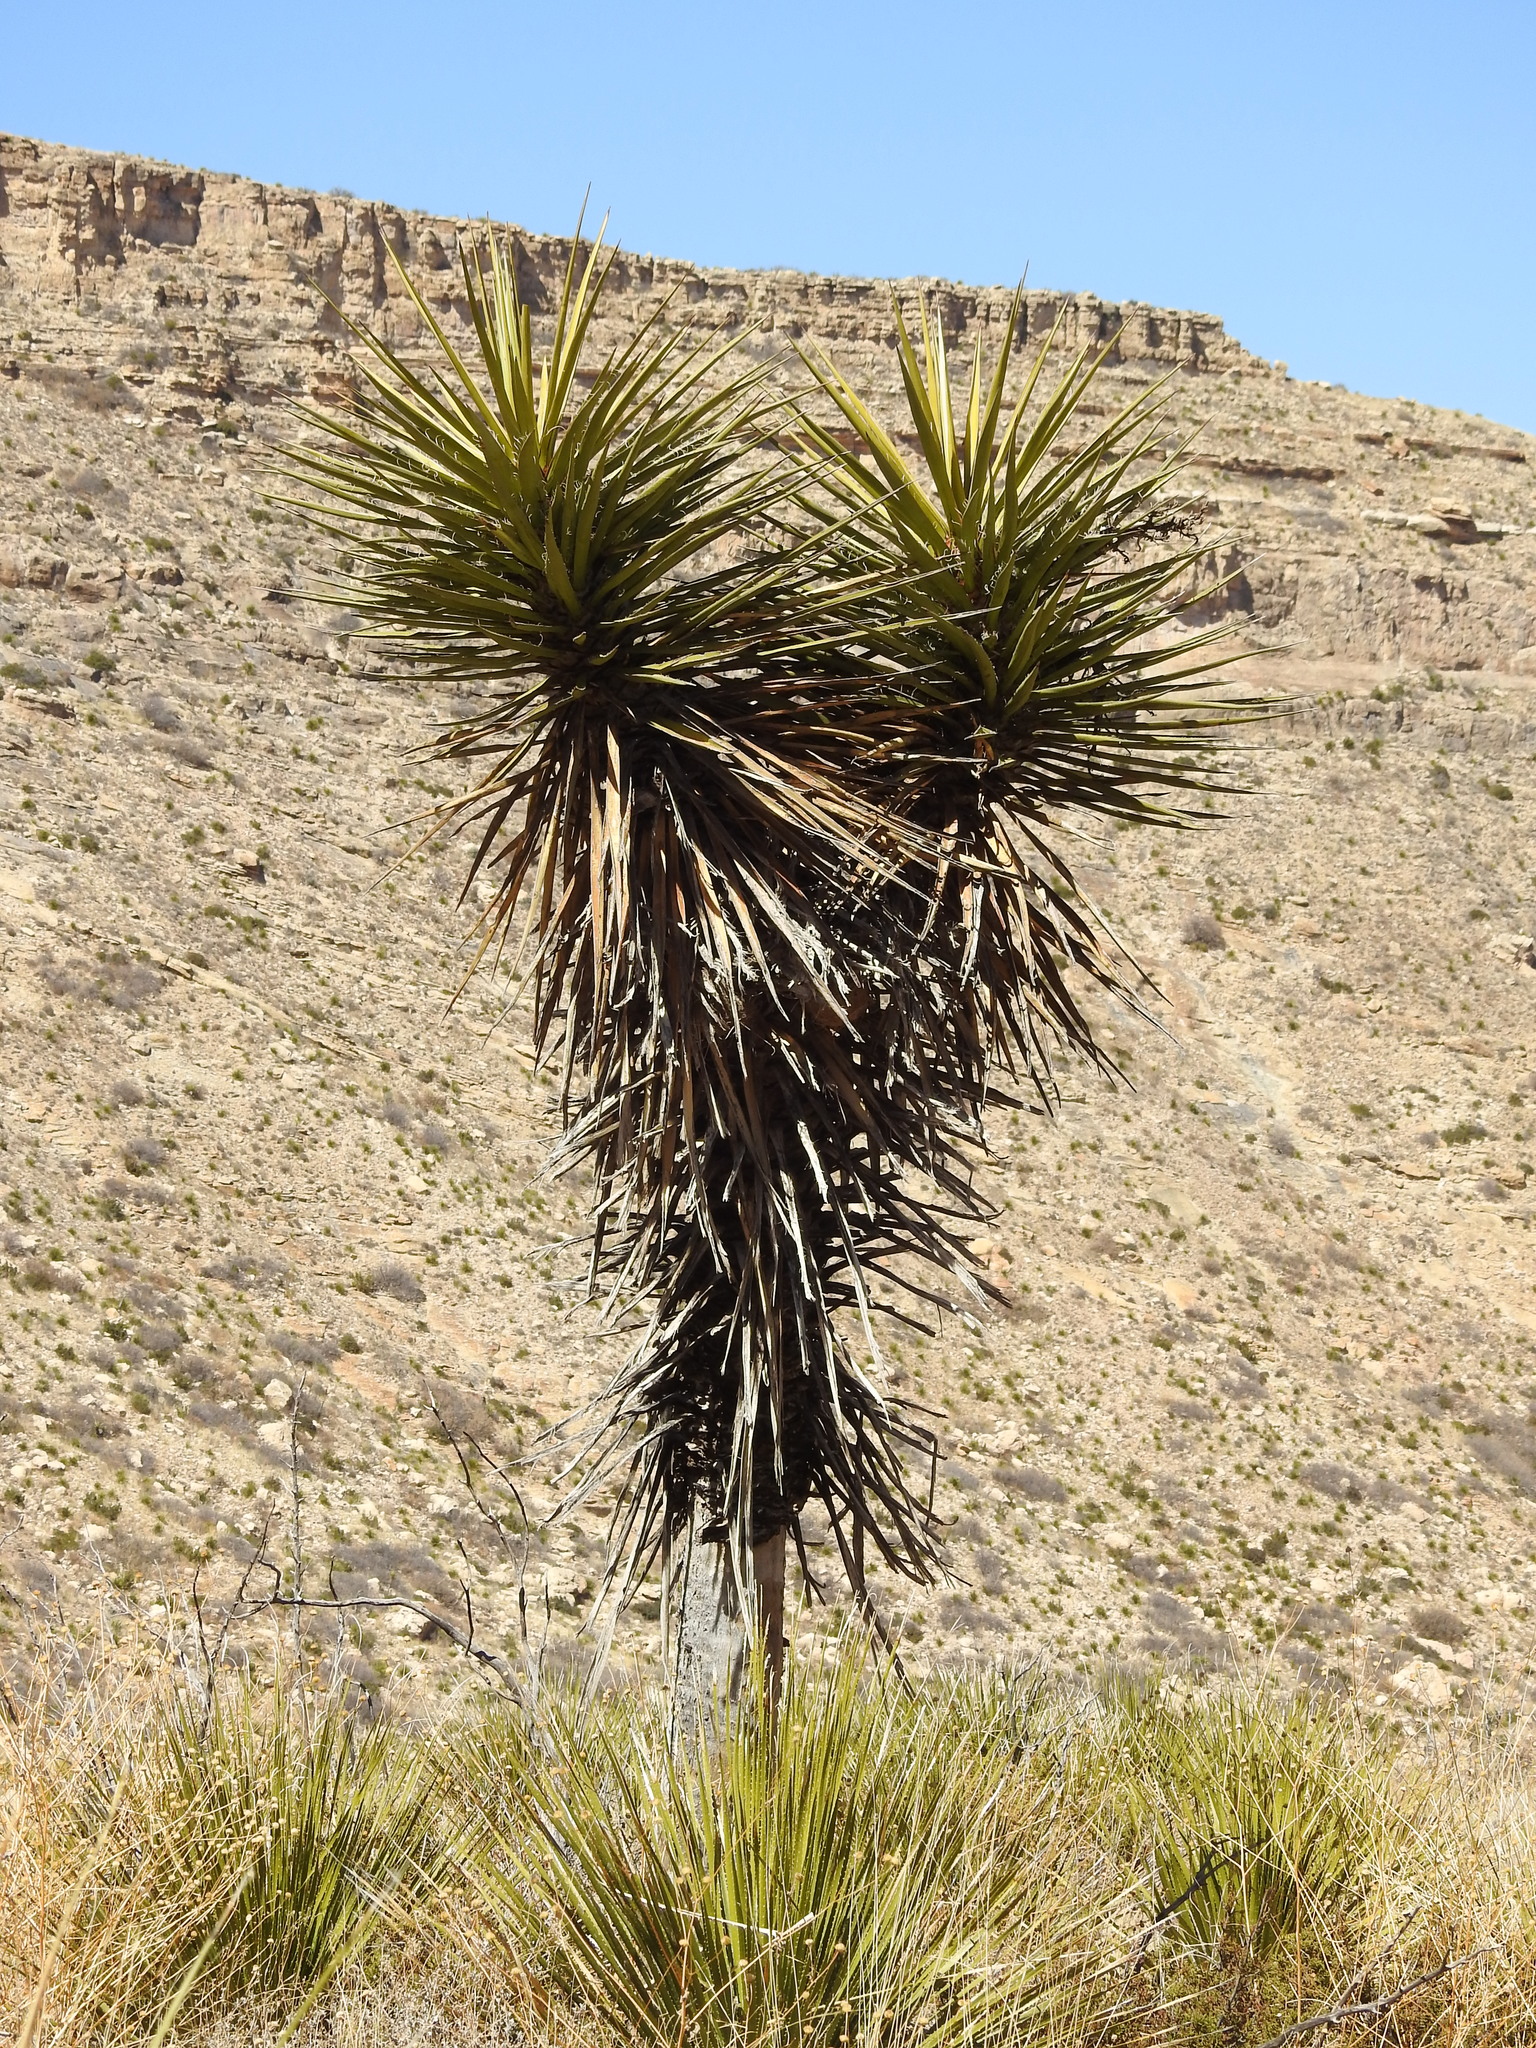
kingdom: Plantae
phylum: Tracheophyta
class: Liliopsida
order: Asparagales
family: Asparagaceae
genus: Yucca
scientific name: Yucca treculiana
